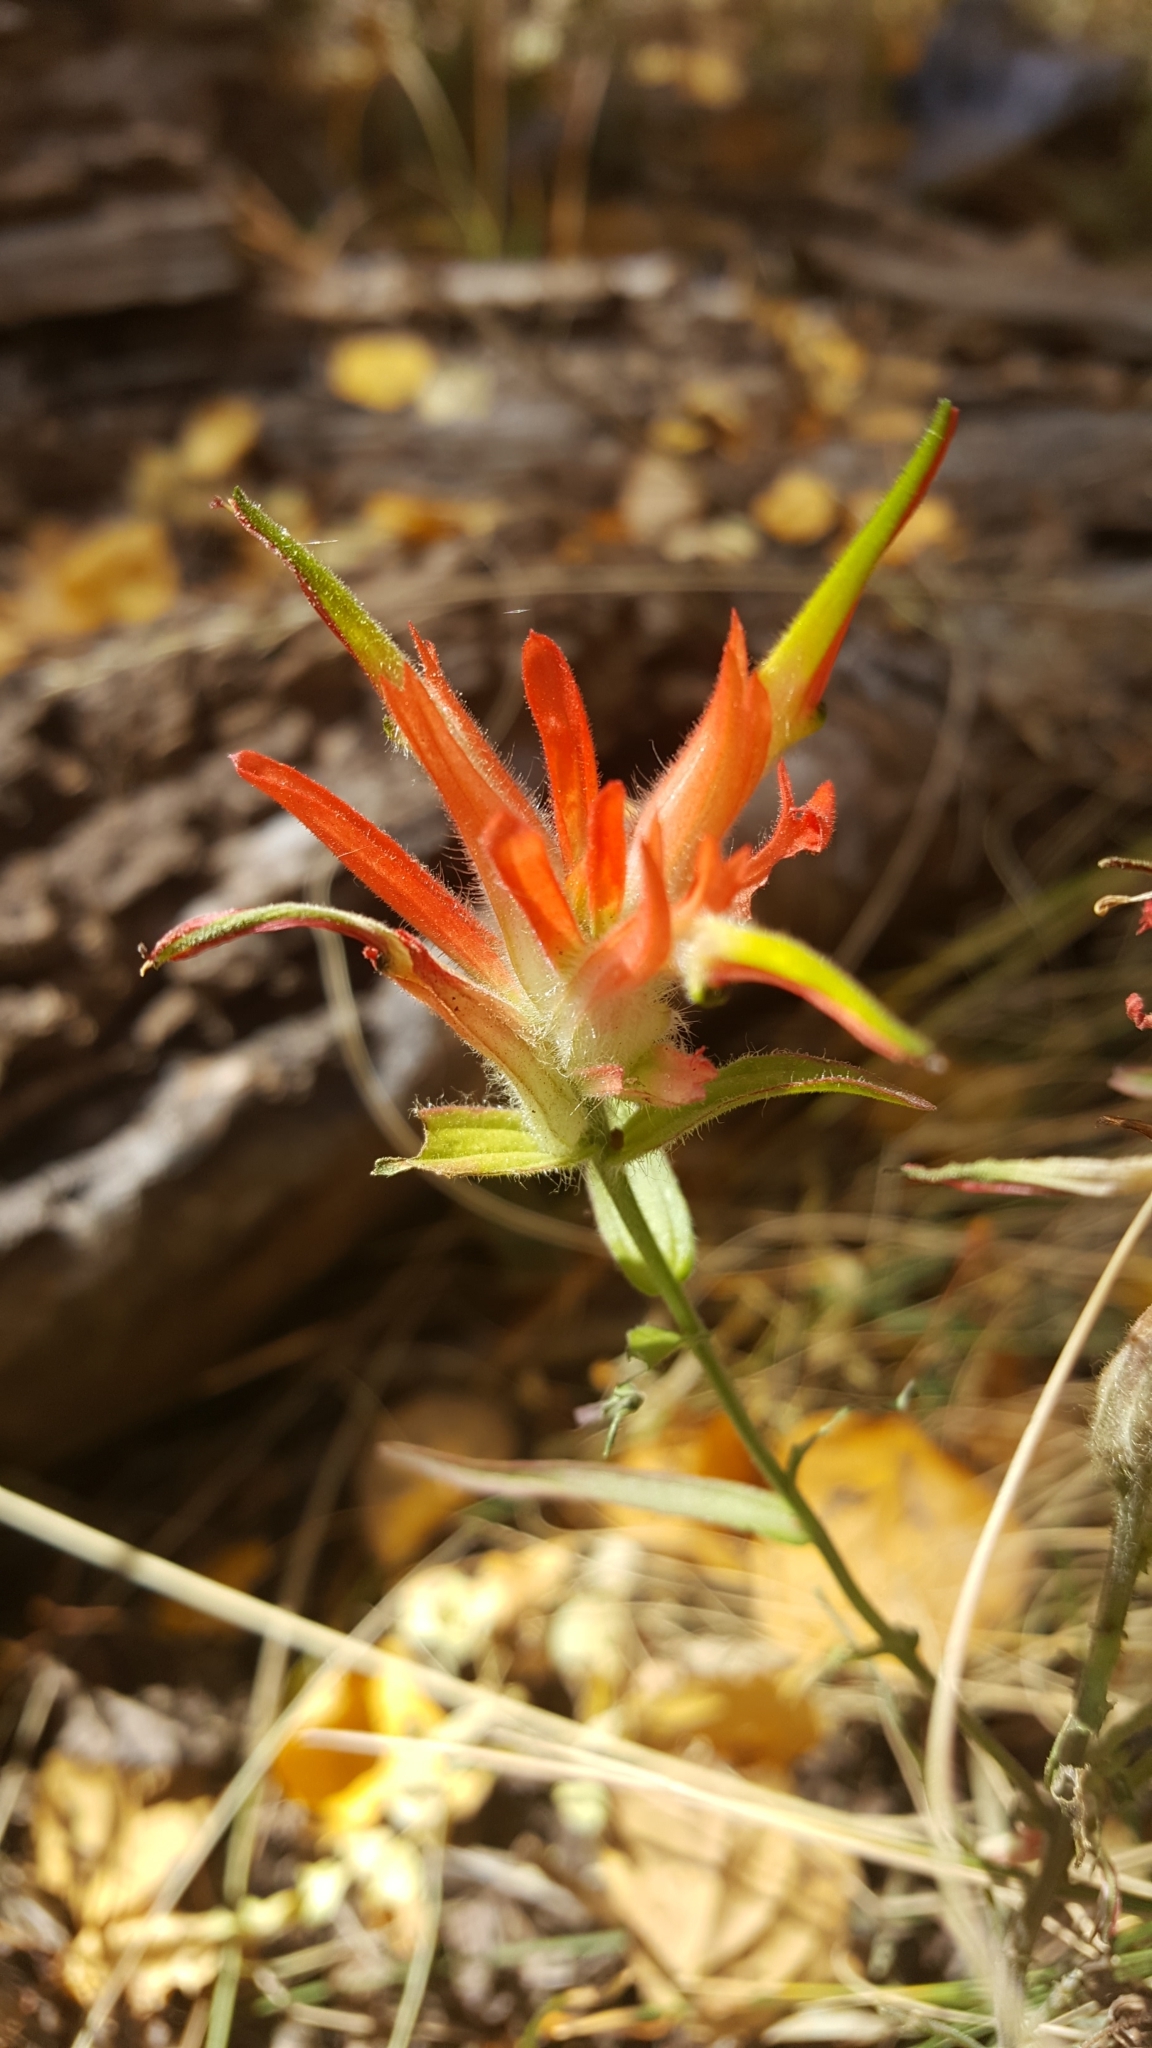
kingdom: Plantae
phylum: Tracheophyta
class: Magnoliopsida
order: Lamiales
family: Orobanchaceae
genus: Castilleja
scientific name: Castilleja linariifolia
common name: Wyoming paintbrush
